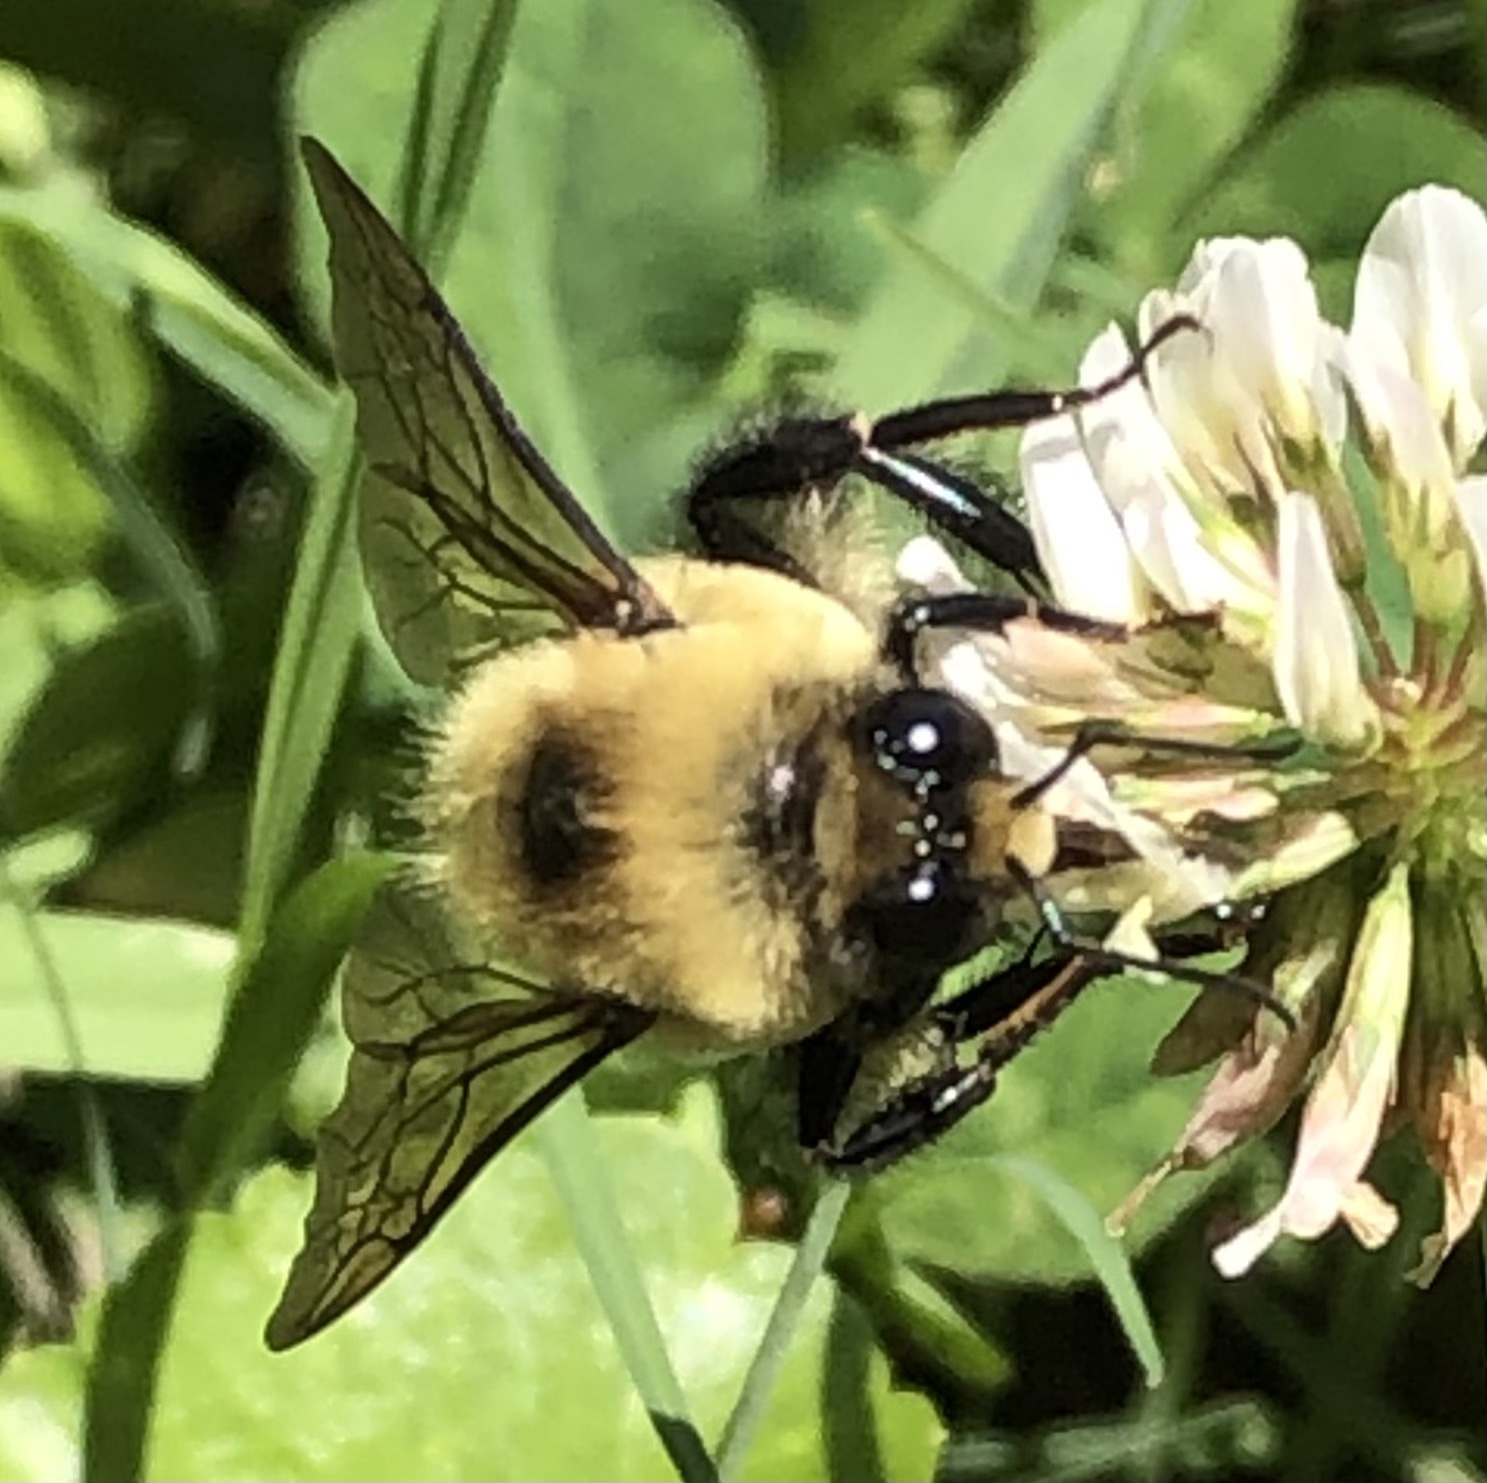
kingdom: Animalia
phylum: Arthropoda
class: Insecta
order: Hymenoptera
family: Apidae
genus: Bombus
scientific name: Bombus griseocollis
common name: Brown-belted bumble bee
